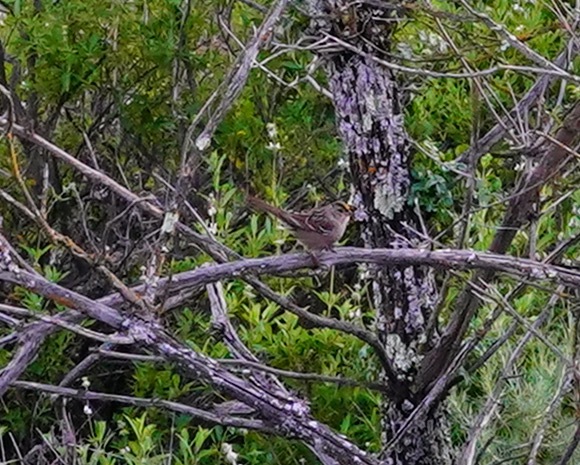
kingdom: Animalia
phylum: Chordata
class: Aves
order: Passeriformes
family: Passerellidae
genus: Zonotrichia
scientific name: Zonotrichia atricapilla
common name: Golden-crowned sparrow
